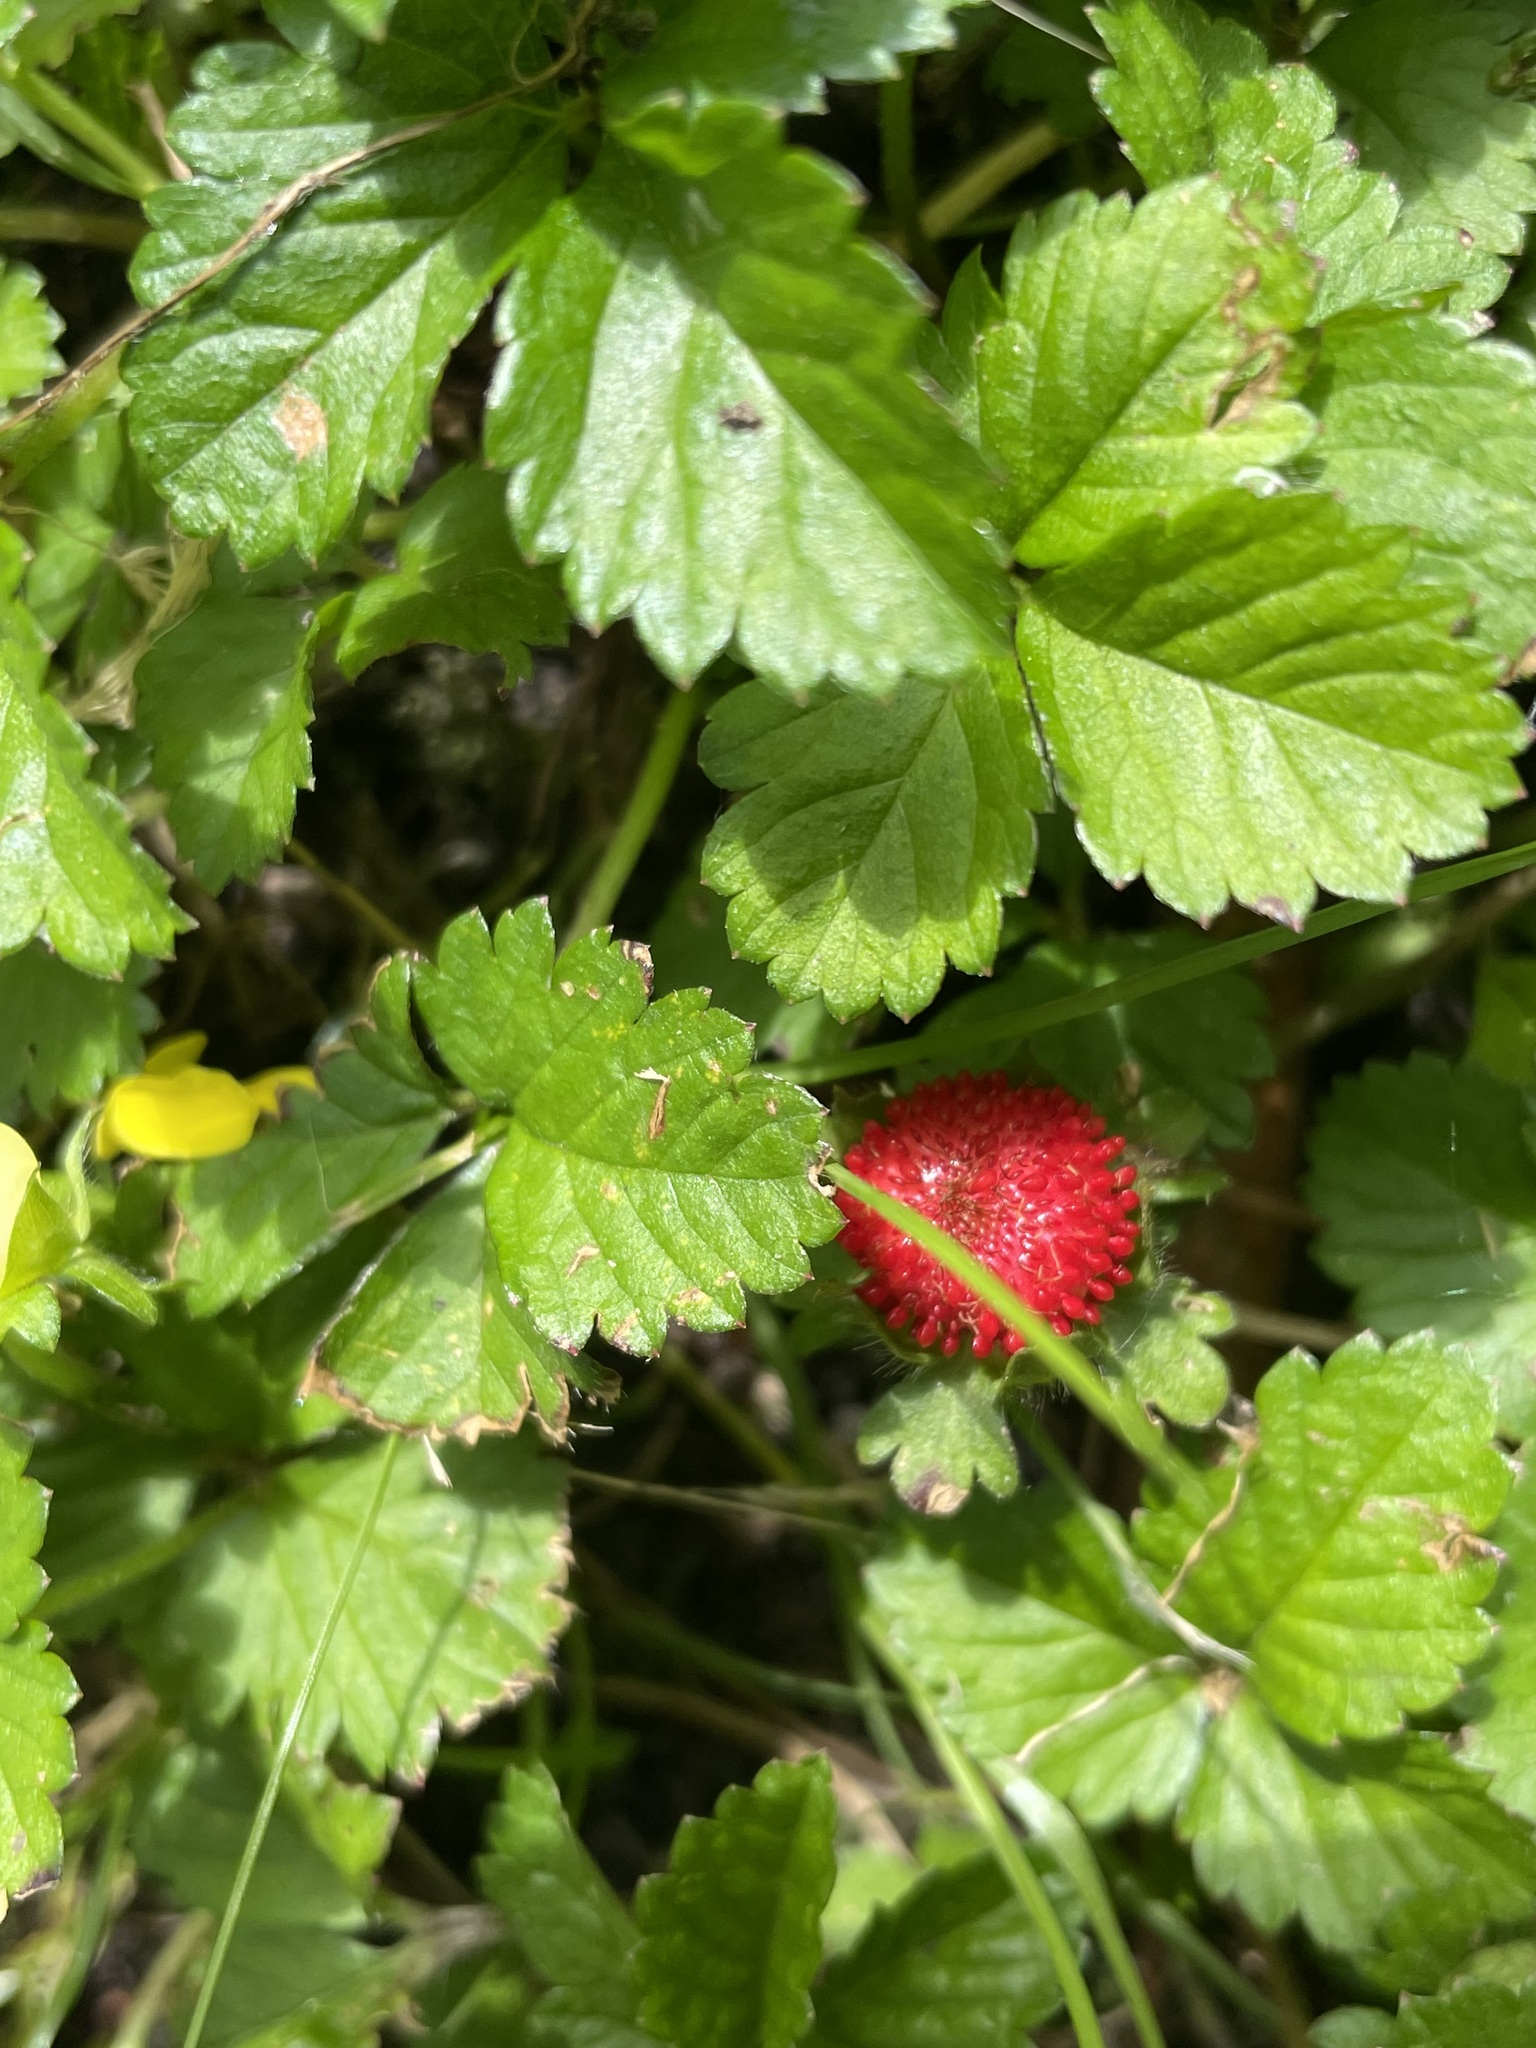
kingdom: Plantae
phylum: Tracheophyta
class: Magnoliopsida
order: Rosales
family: Rosaceae
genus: Potentilla
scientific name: Potentilla indica
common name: Yellow-flowered strawberry
